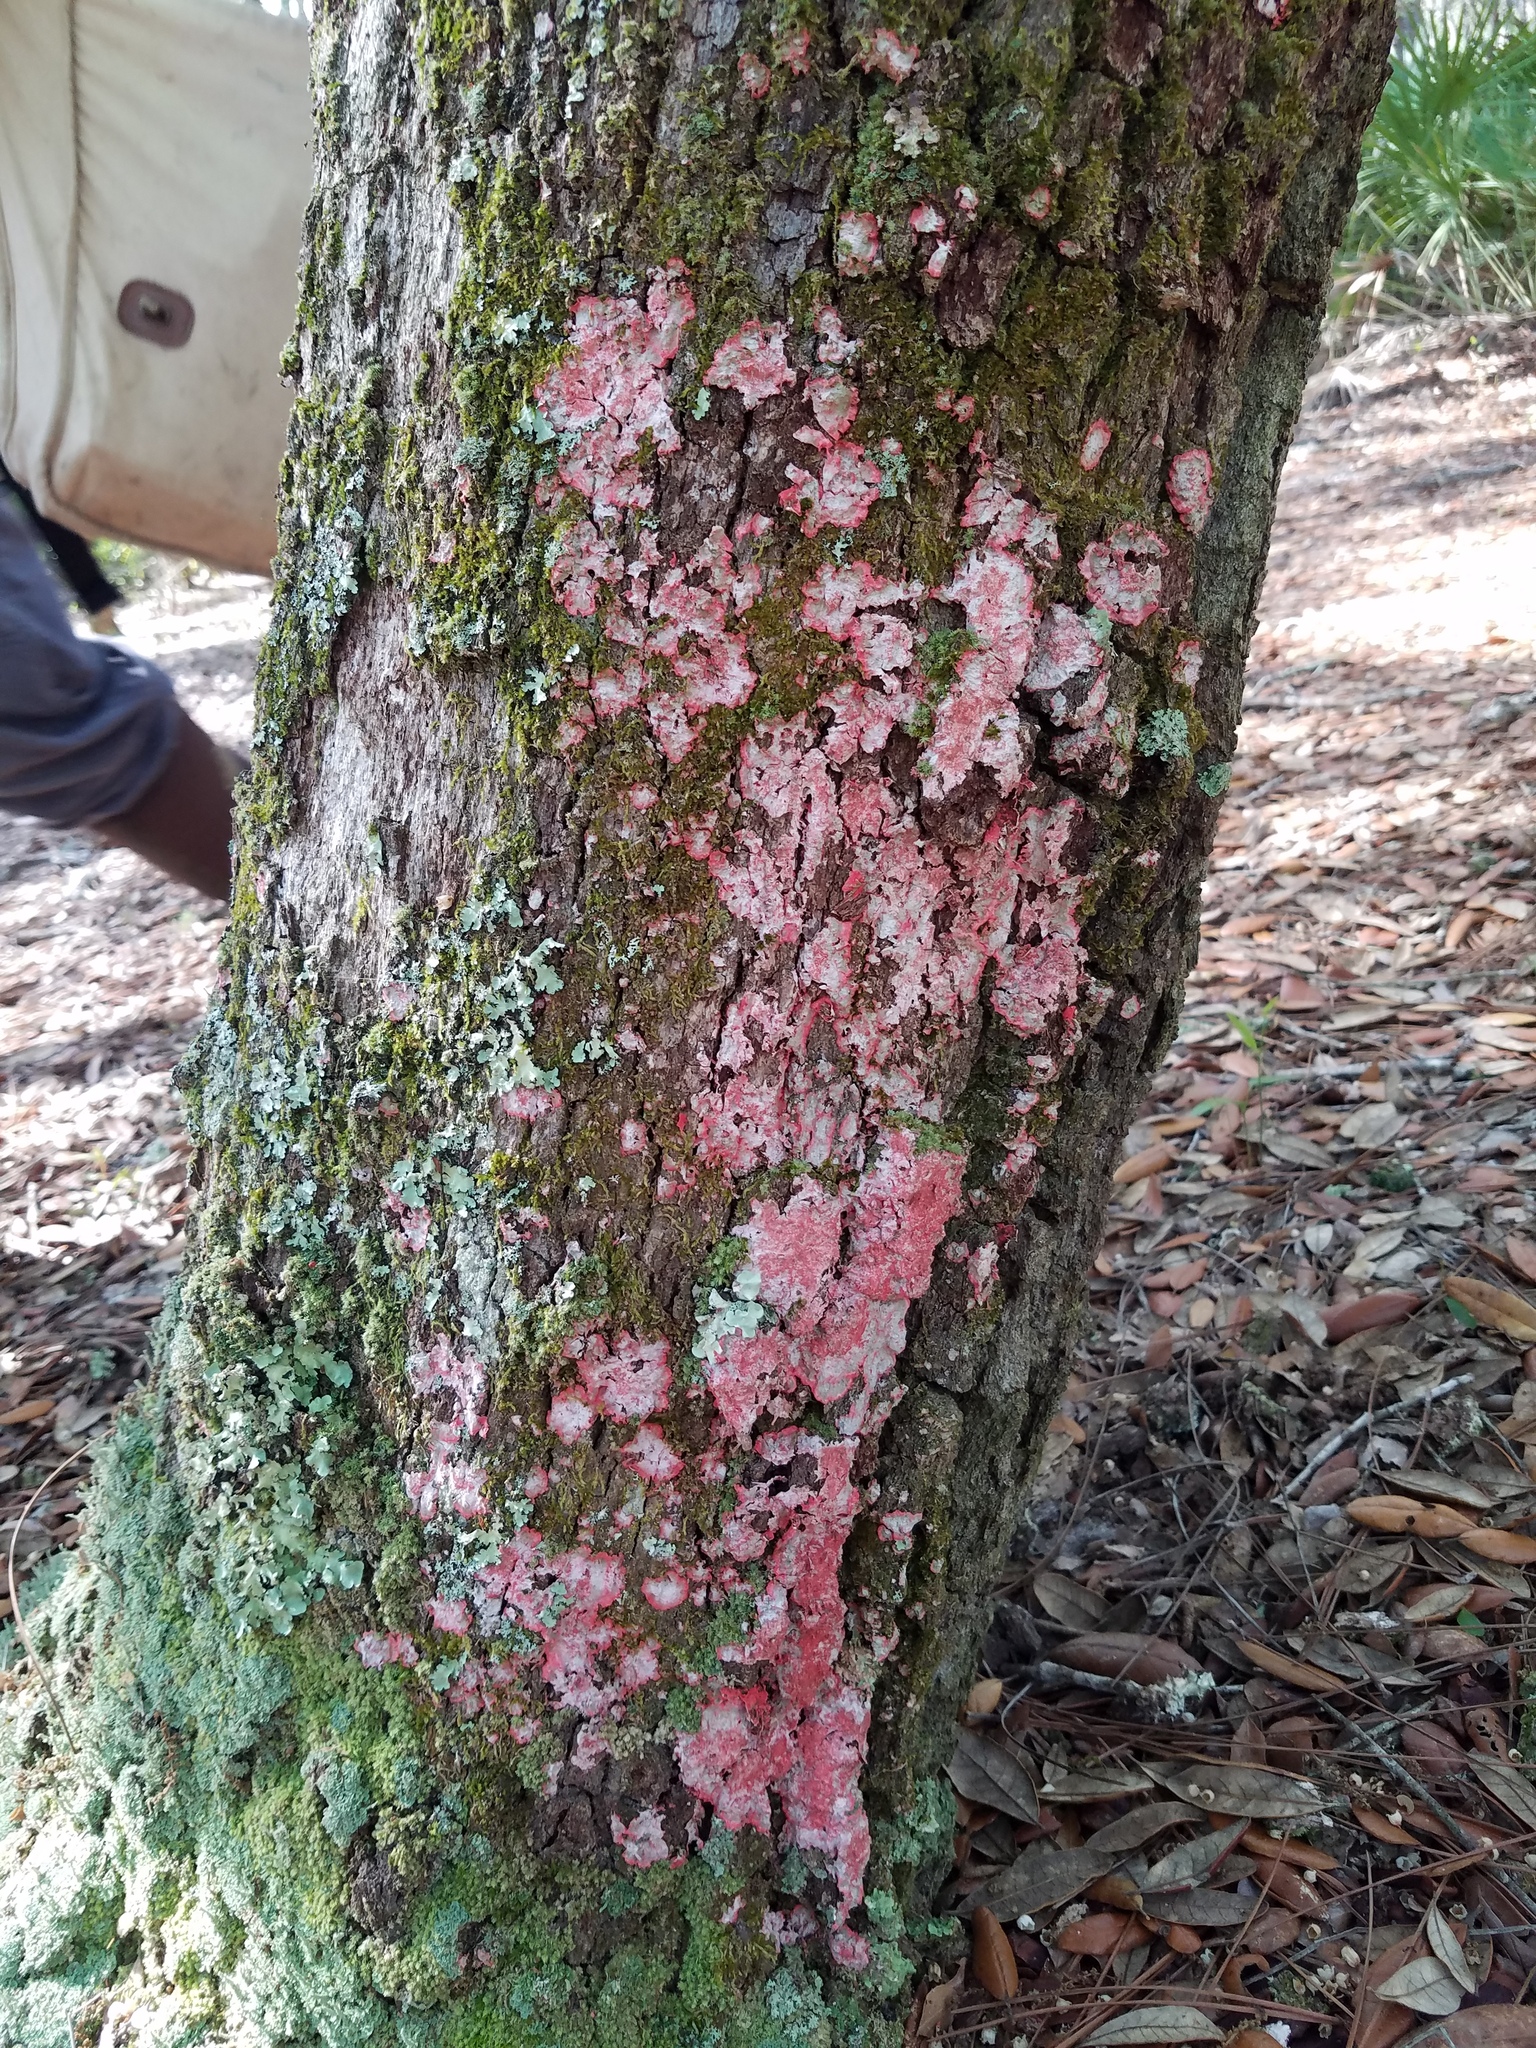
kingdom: Fungi
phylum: Ascomycota
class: Arthoniomycetes
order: Arthoniales
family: Arthoniaceae
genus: Herpothallon
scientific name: Herpothallon rubrocinctum
